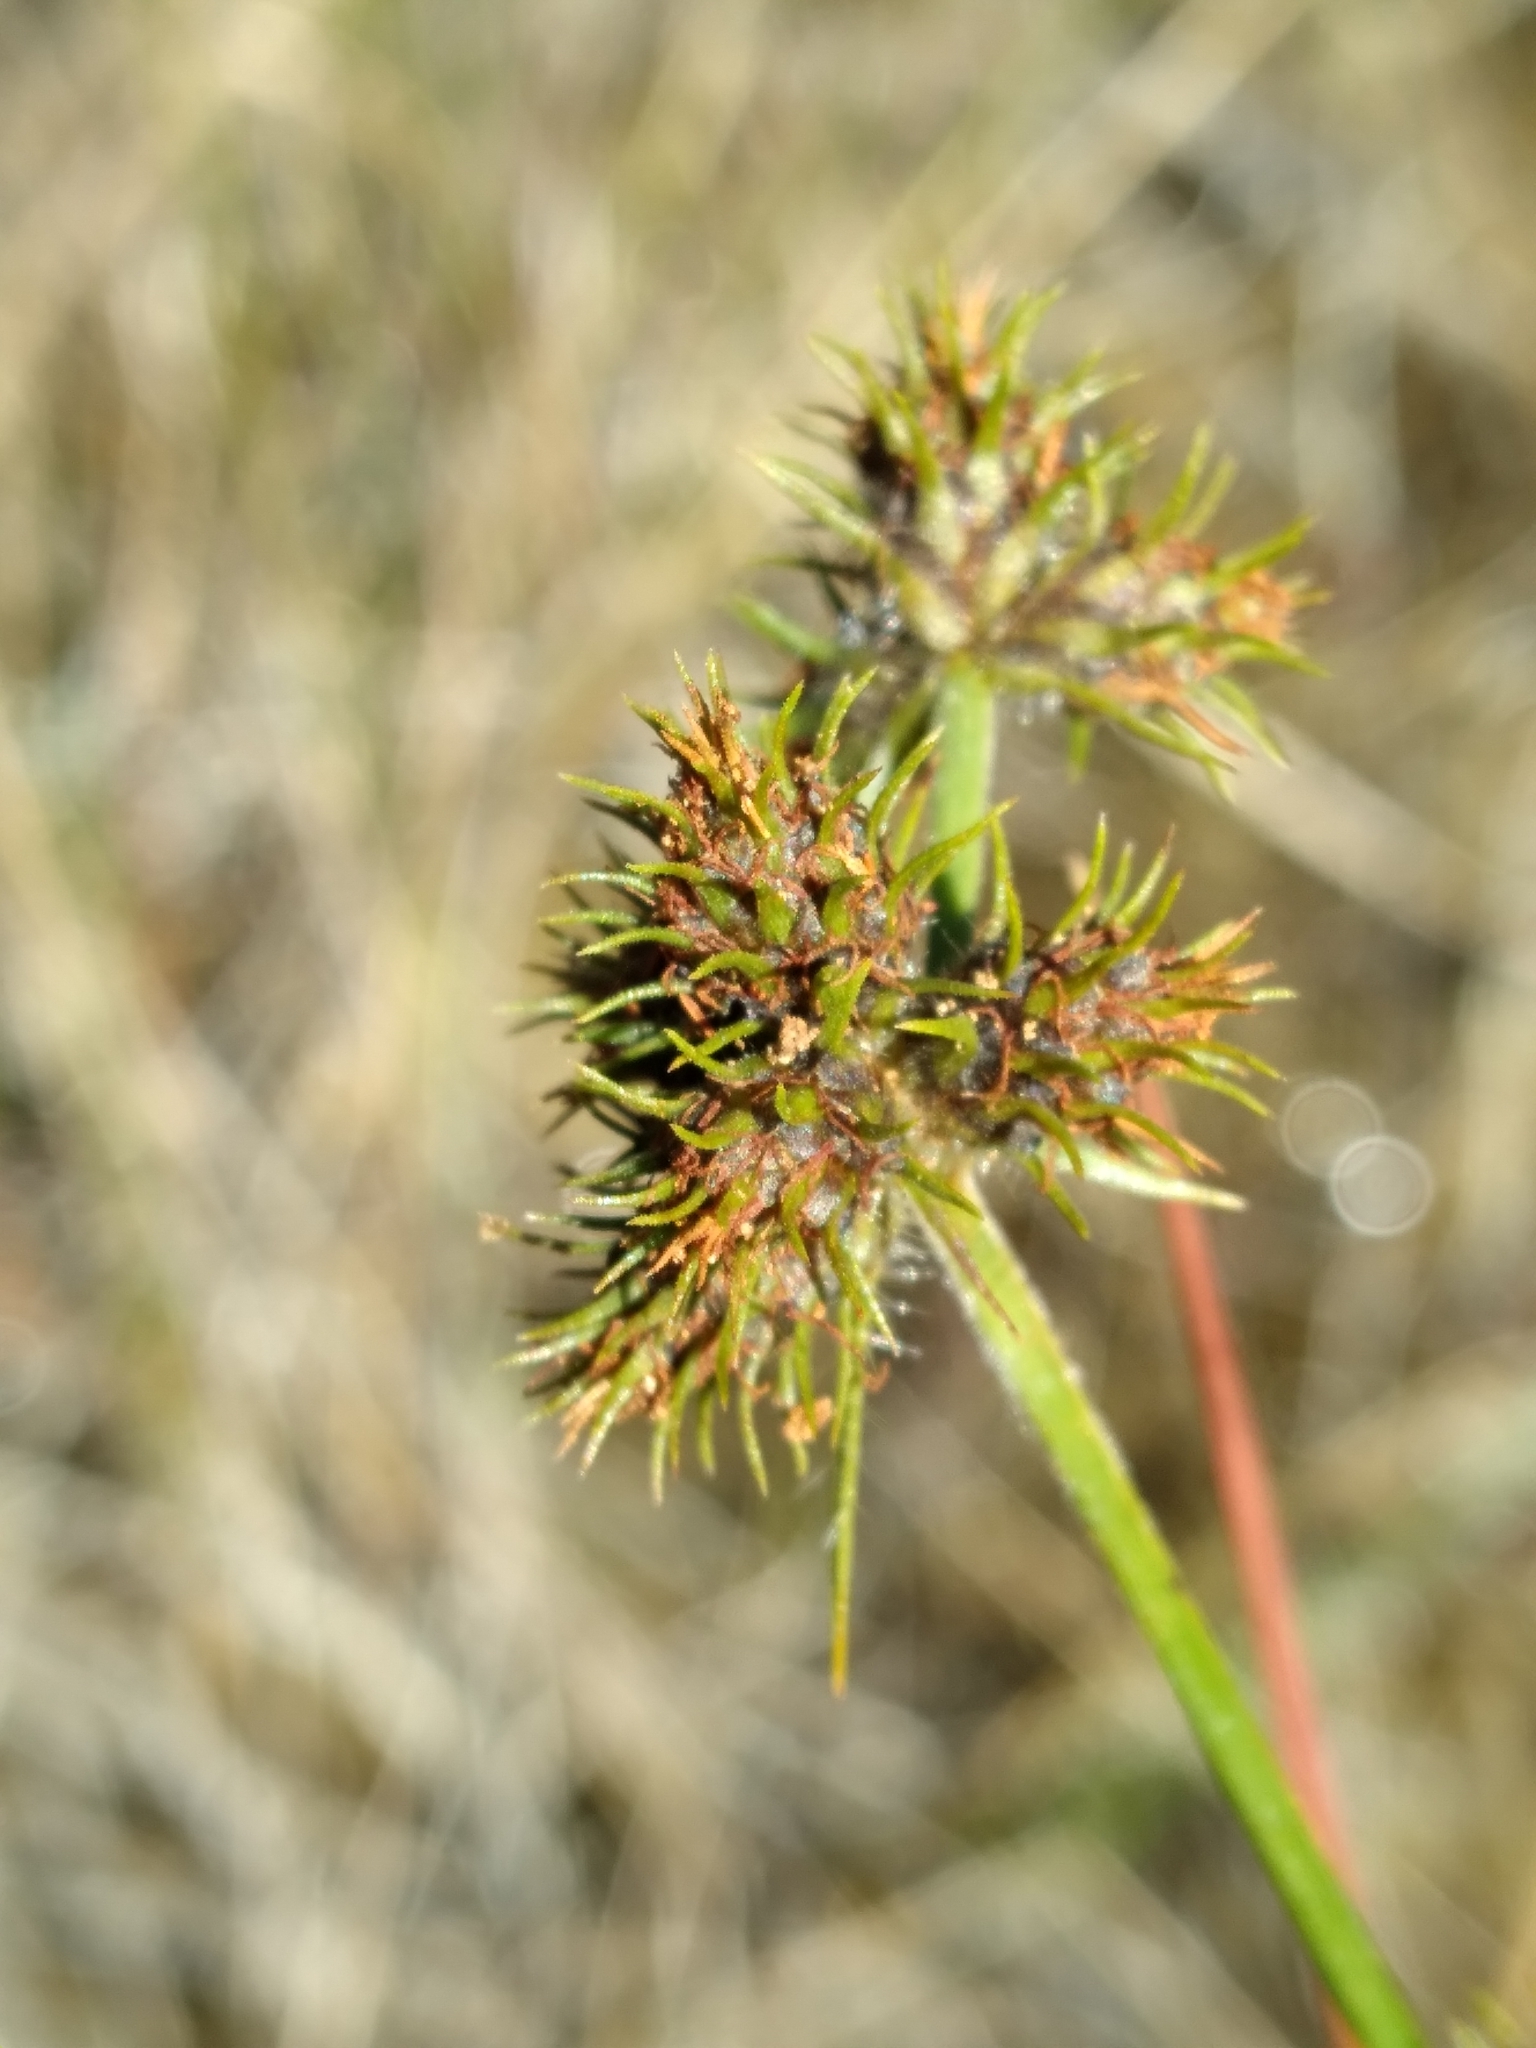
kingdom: Plantae
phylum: Tracheophyta
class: Liliopsida
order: Poales
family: Cyperaceae
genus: Fuirena
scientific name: Fuirena breviseta
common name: Saltmarsh umbrella sedge
